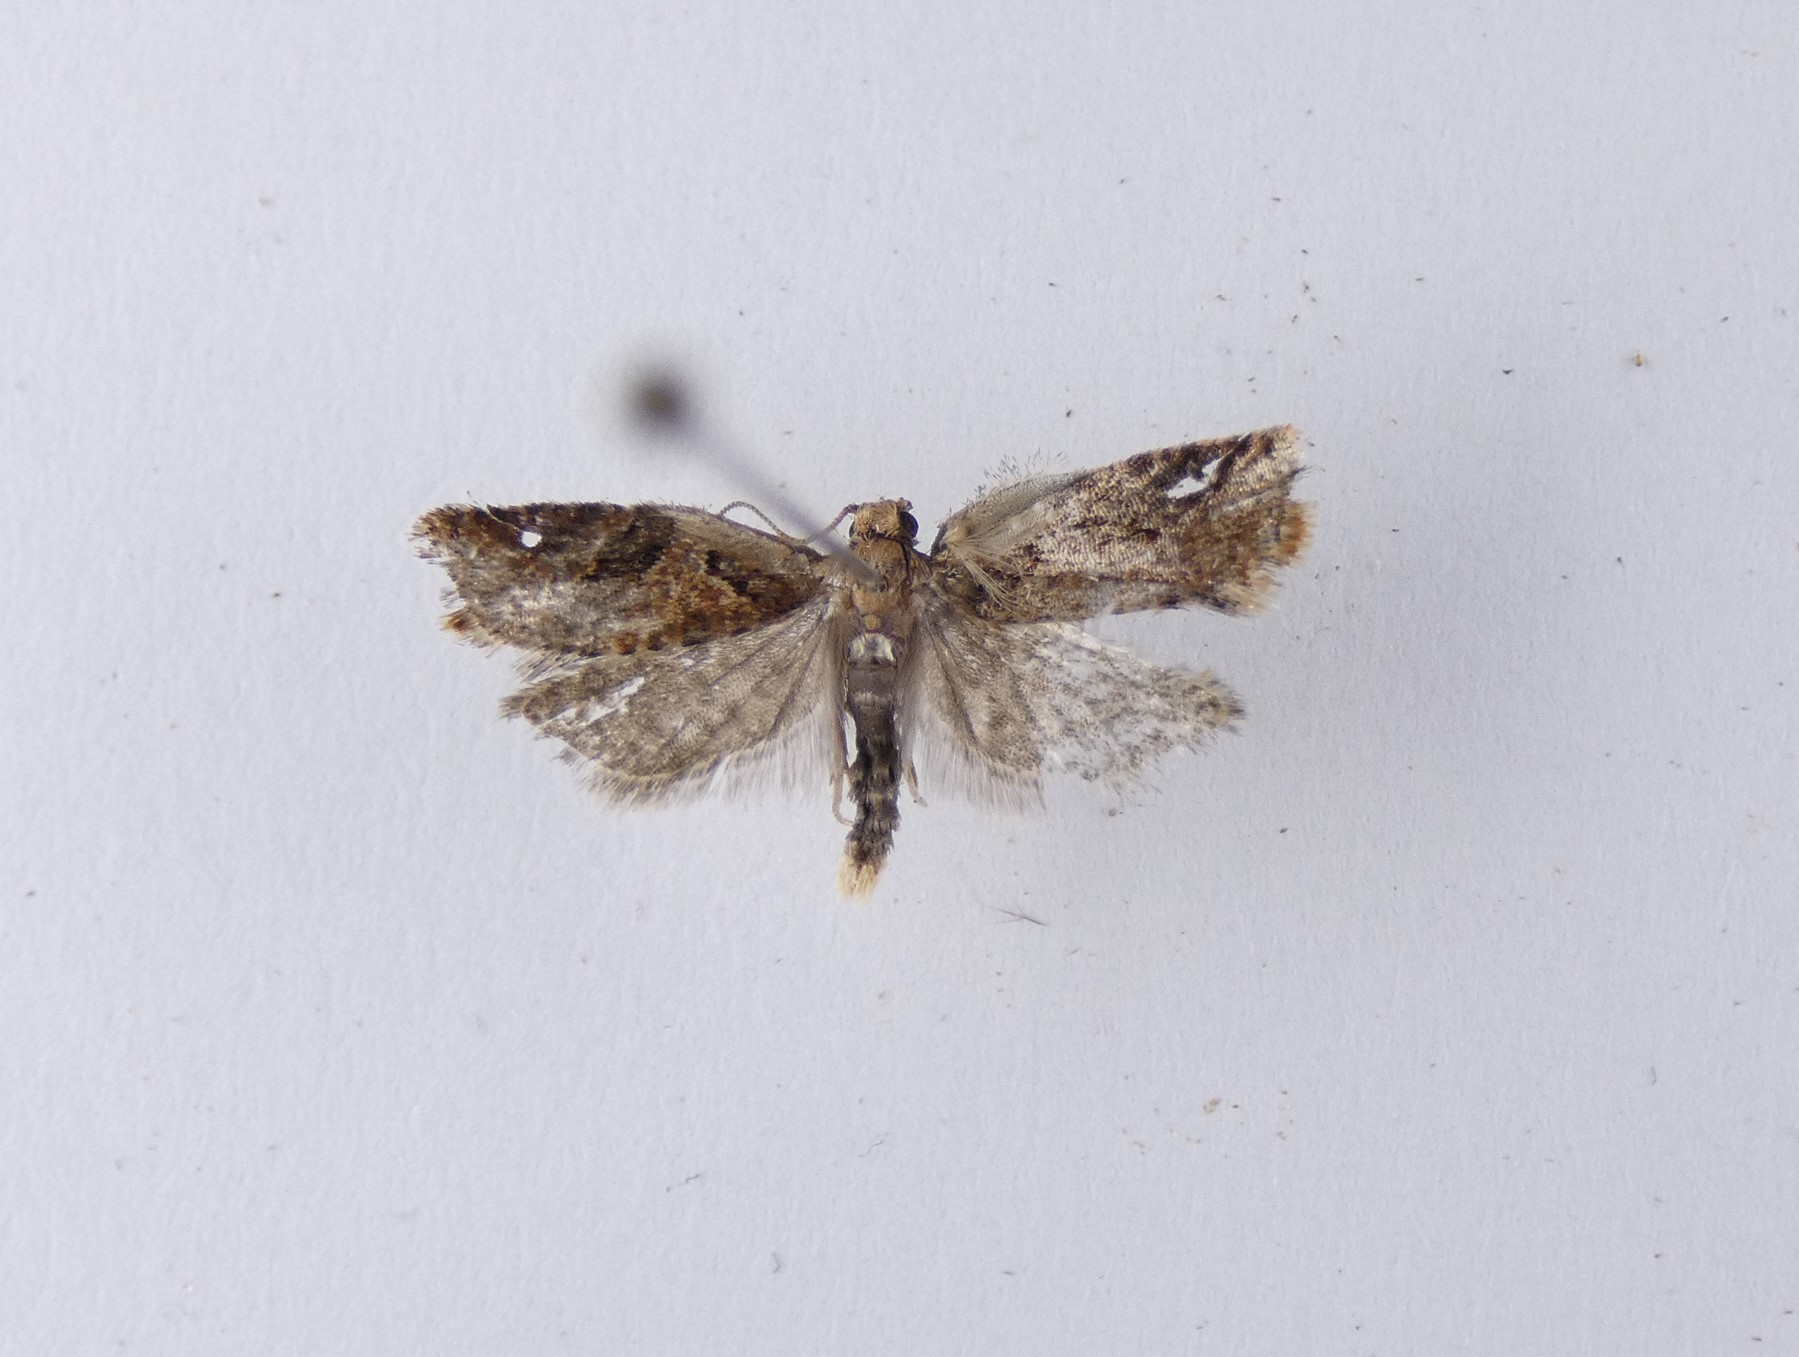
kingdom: Animalia
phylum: Arthropoda
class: Insecta
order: Lepidoptera
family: Tortricidae
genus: Capua
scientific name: Capua semiferana
